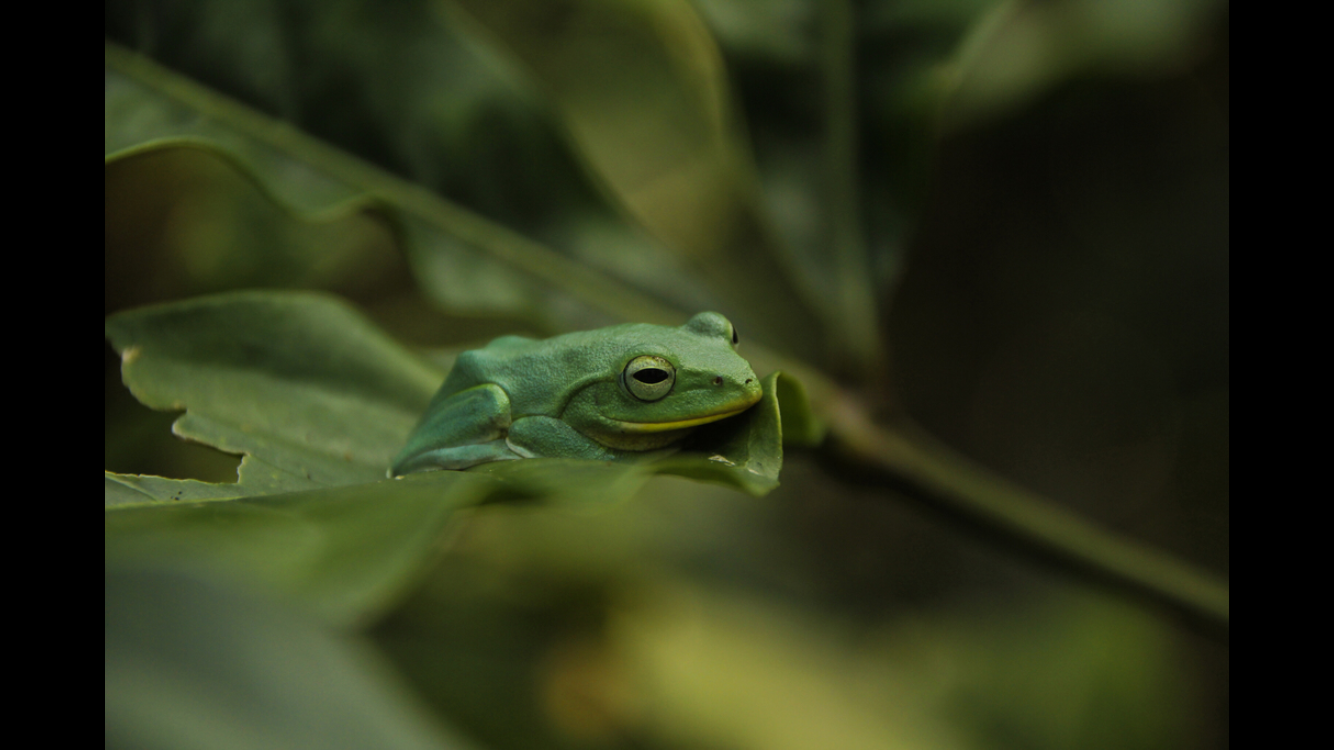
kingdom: Animalia
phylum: Chordata
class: Amphibia
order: Anura
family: Rhacophoridae
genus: Zhangixalus
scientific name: Zhangixalus taipeianus
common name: Taipei flying frog
